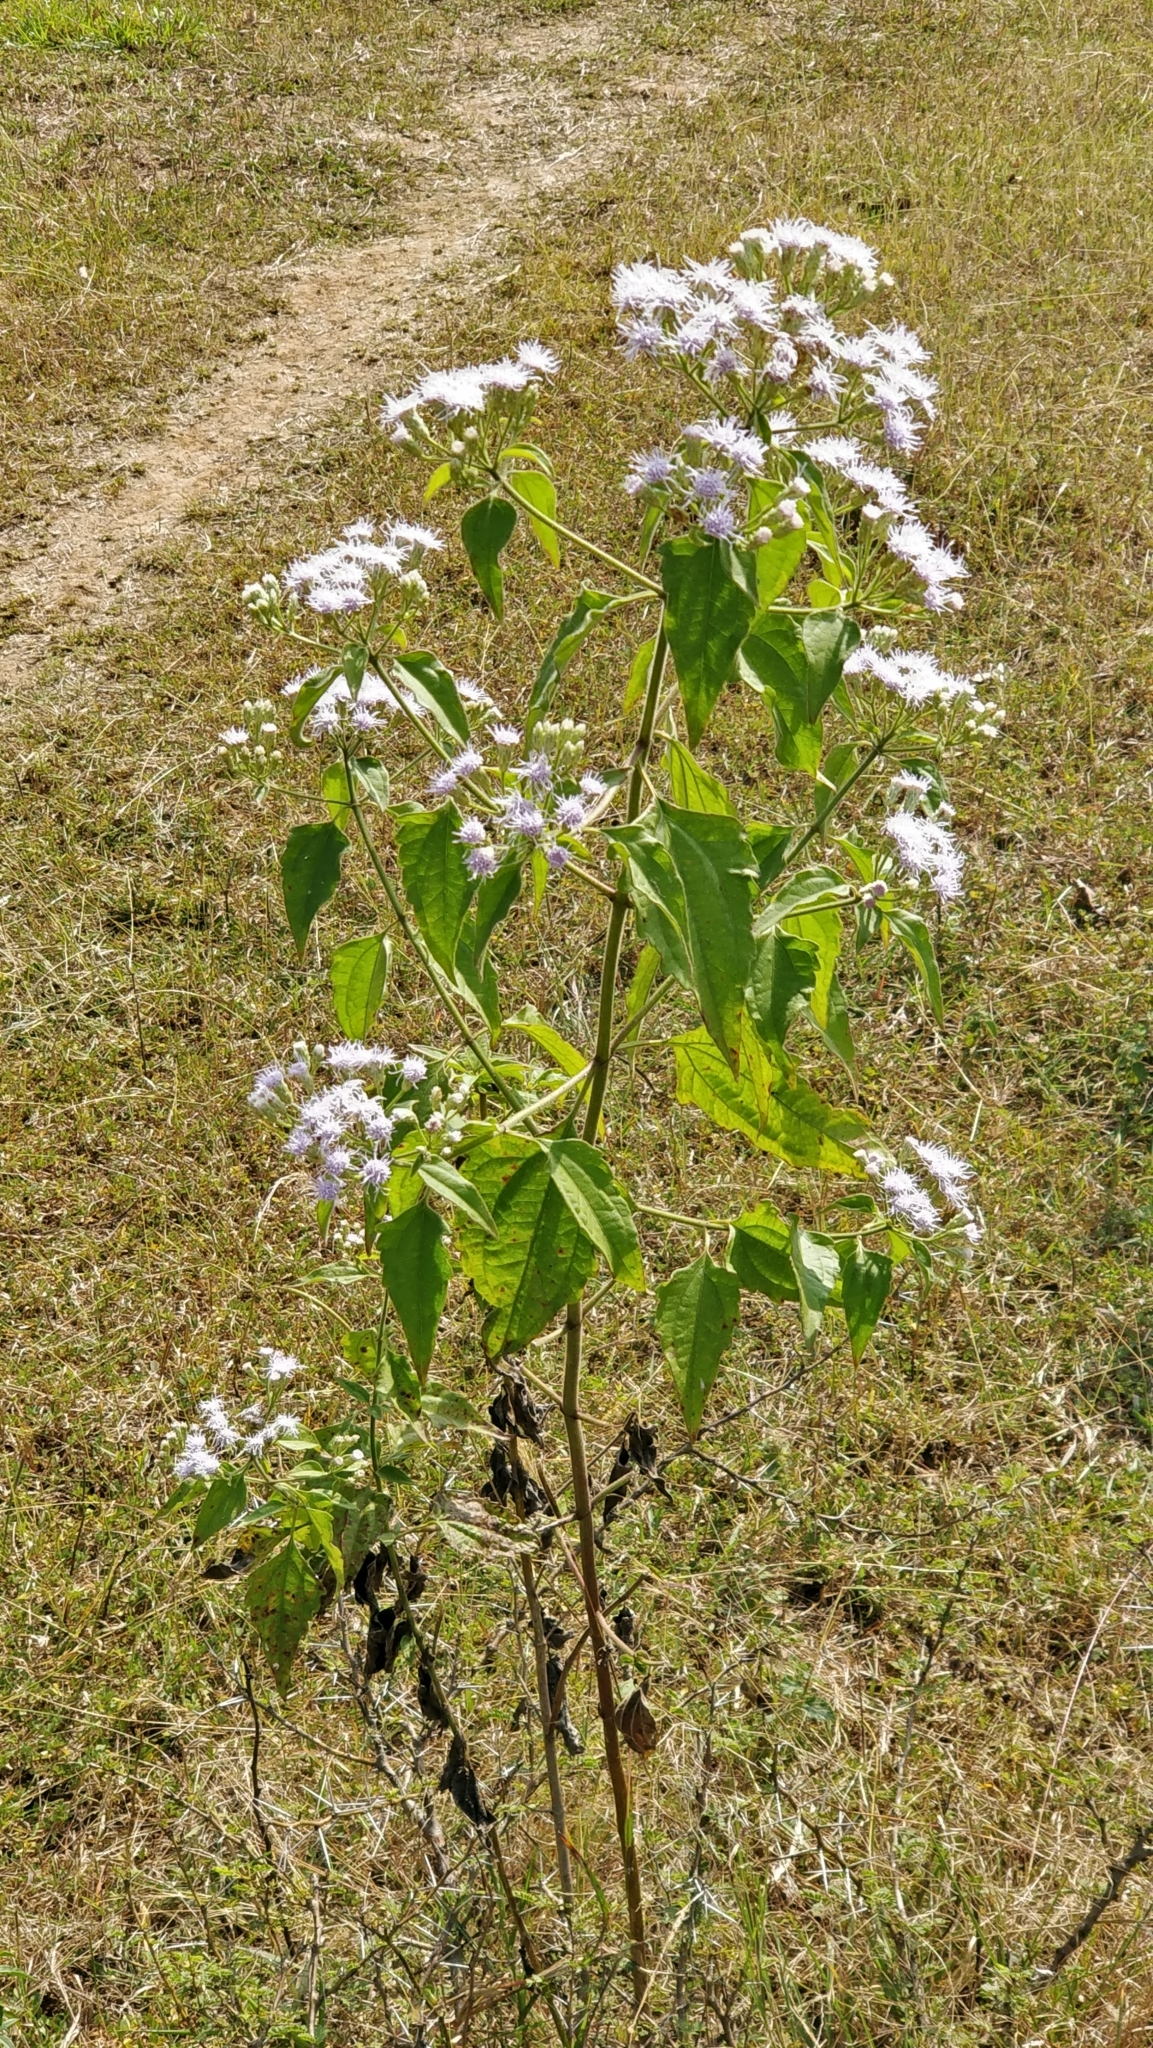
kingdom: Plantae
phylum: Tracheophyta
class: Magnoliopsida
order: Asterales
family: Asteraceae
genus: Chromolaena
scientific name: Chromolaena odorata
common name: Siamweed
